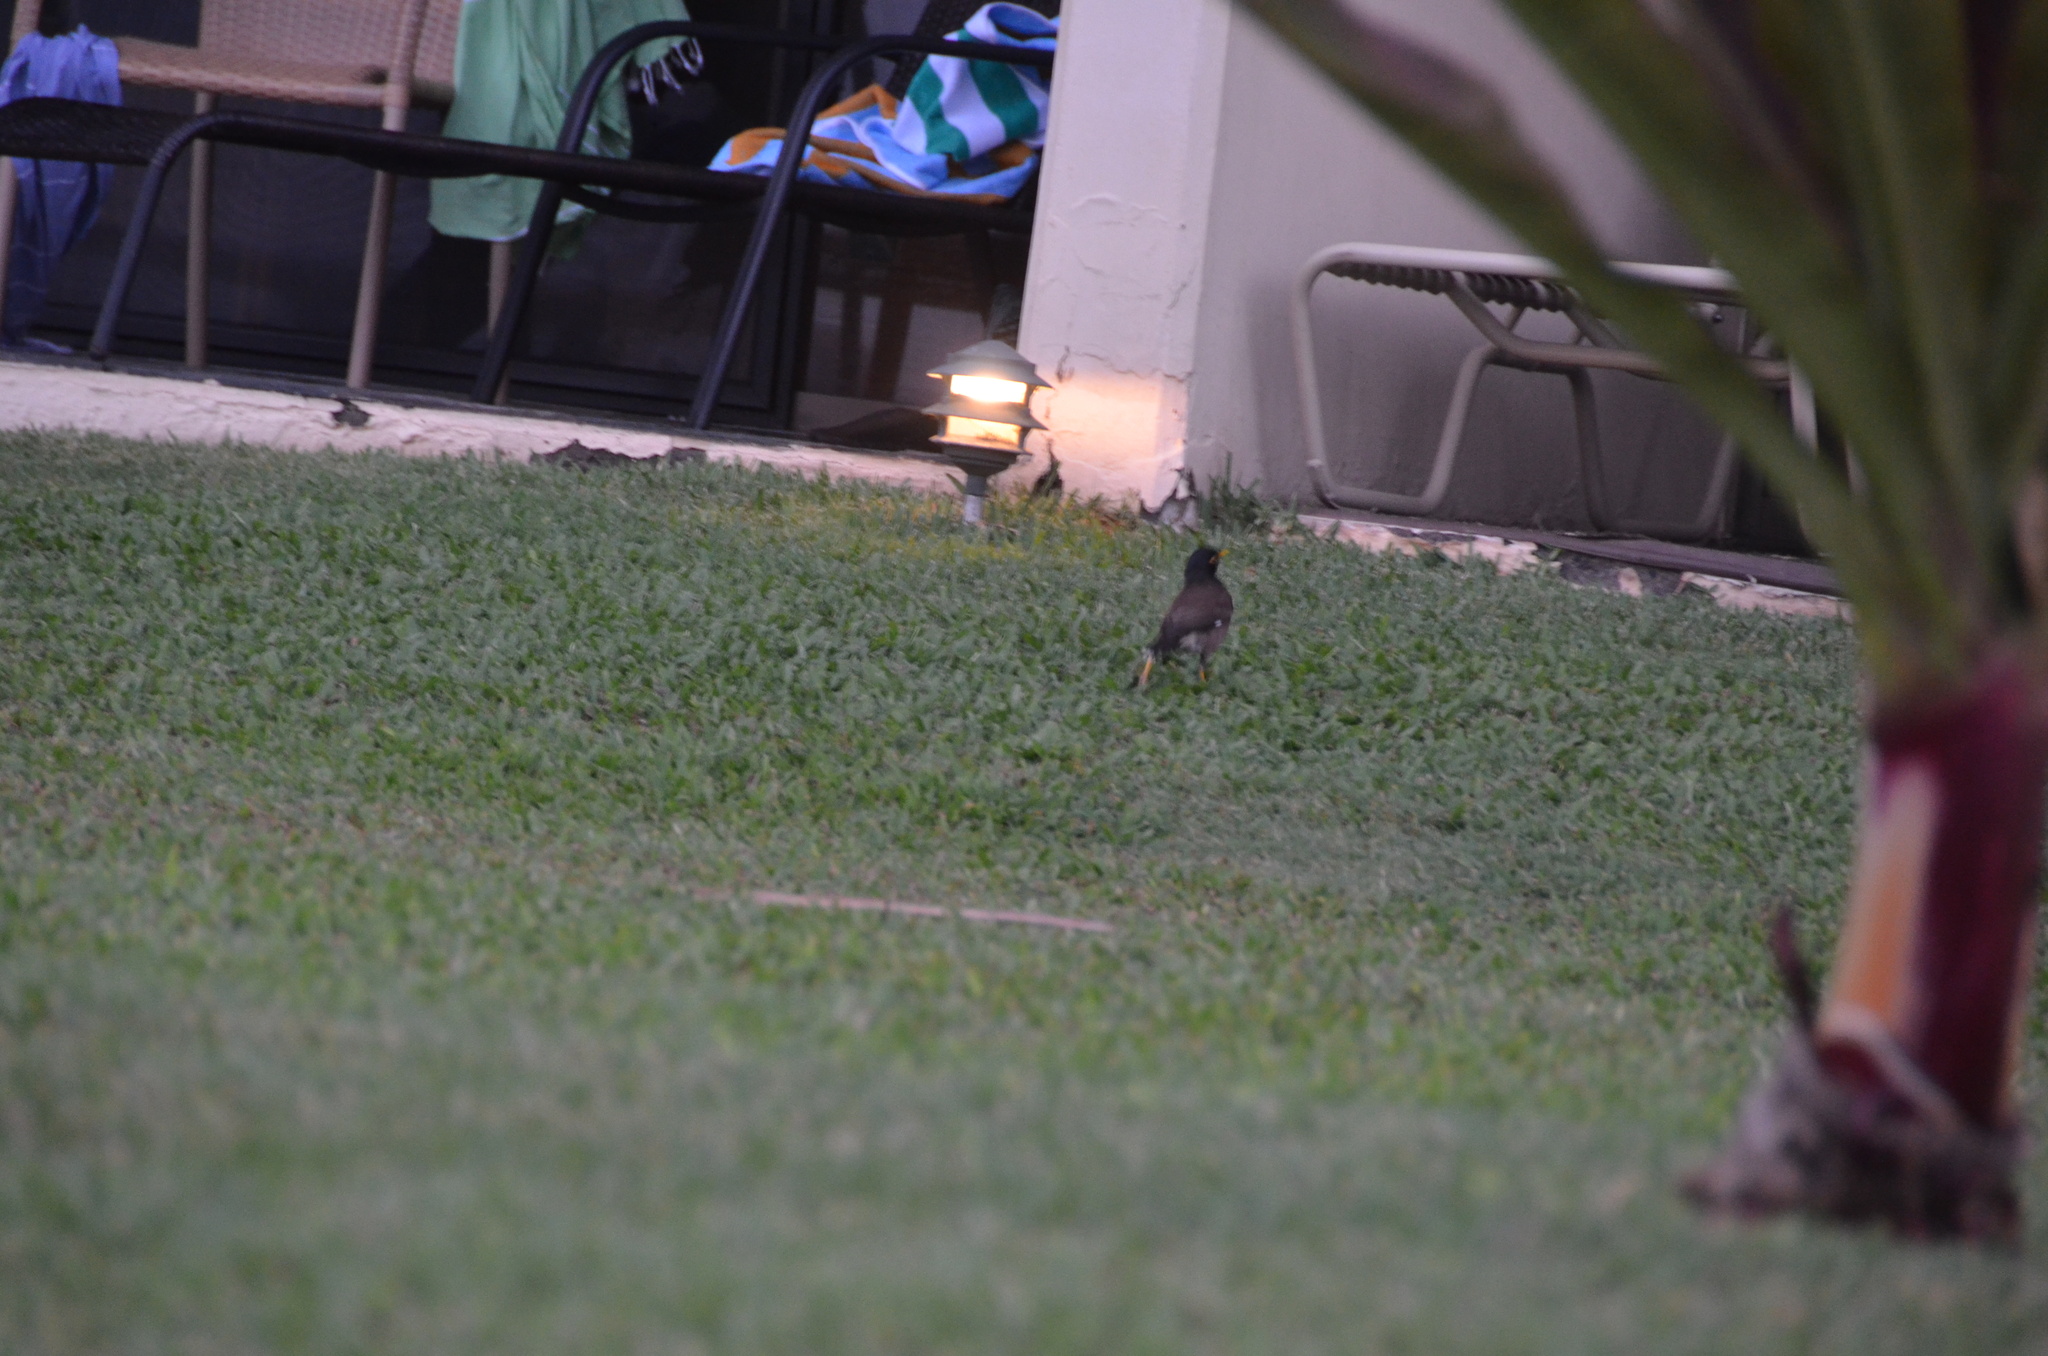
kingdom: Animalia
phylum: Chordata
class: Aves
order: Passeriformes
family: Sturnidae
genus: Acridotheres
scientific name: Acridotheres tristis
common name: Common myna
